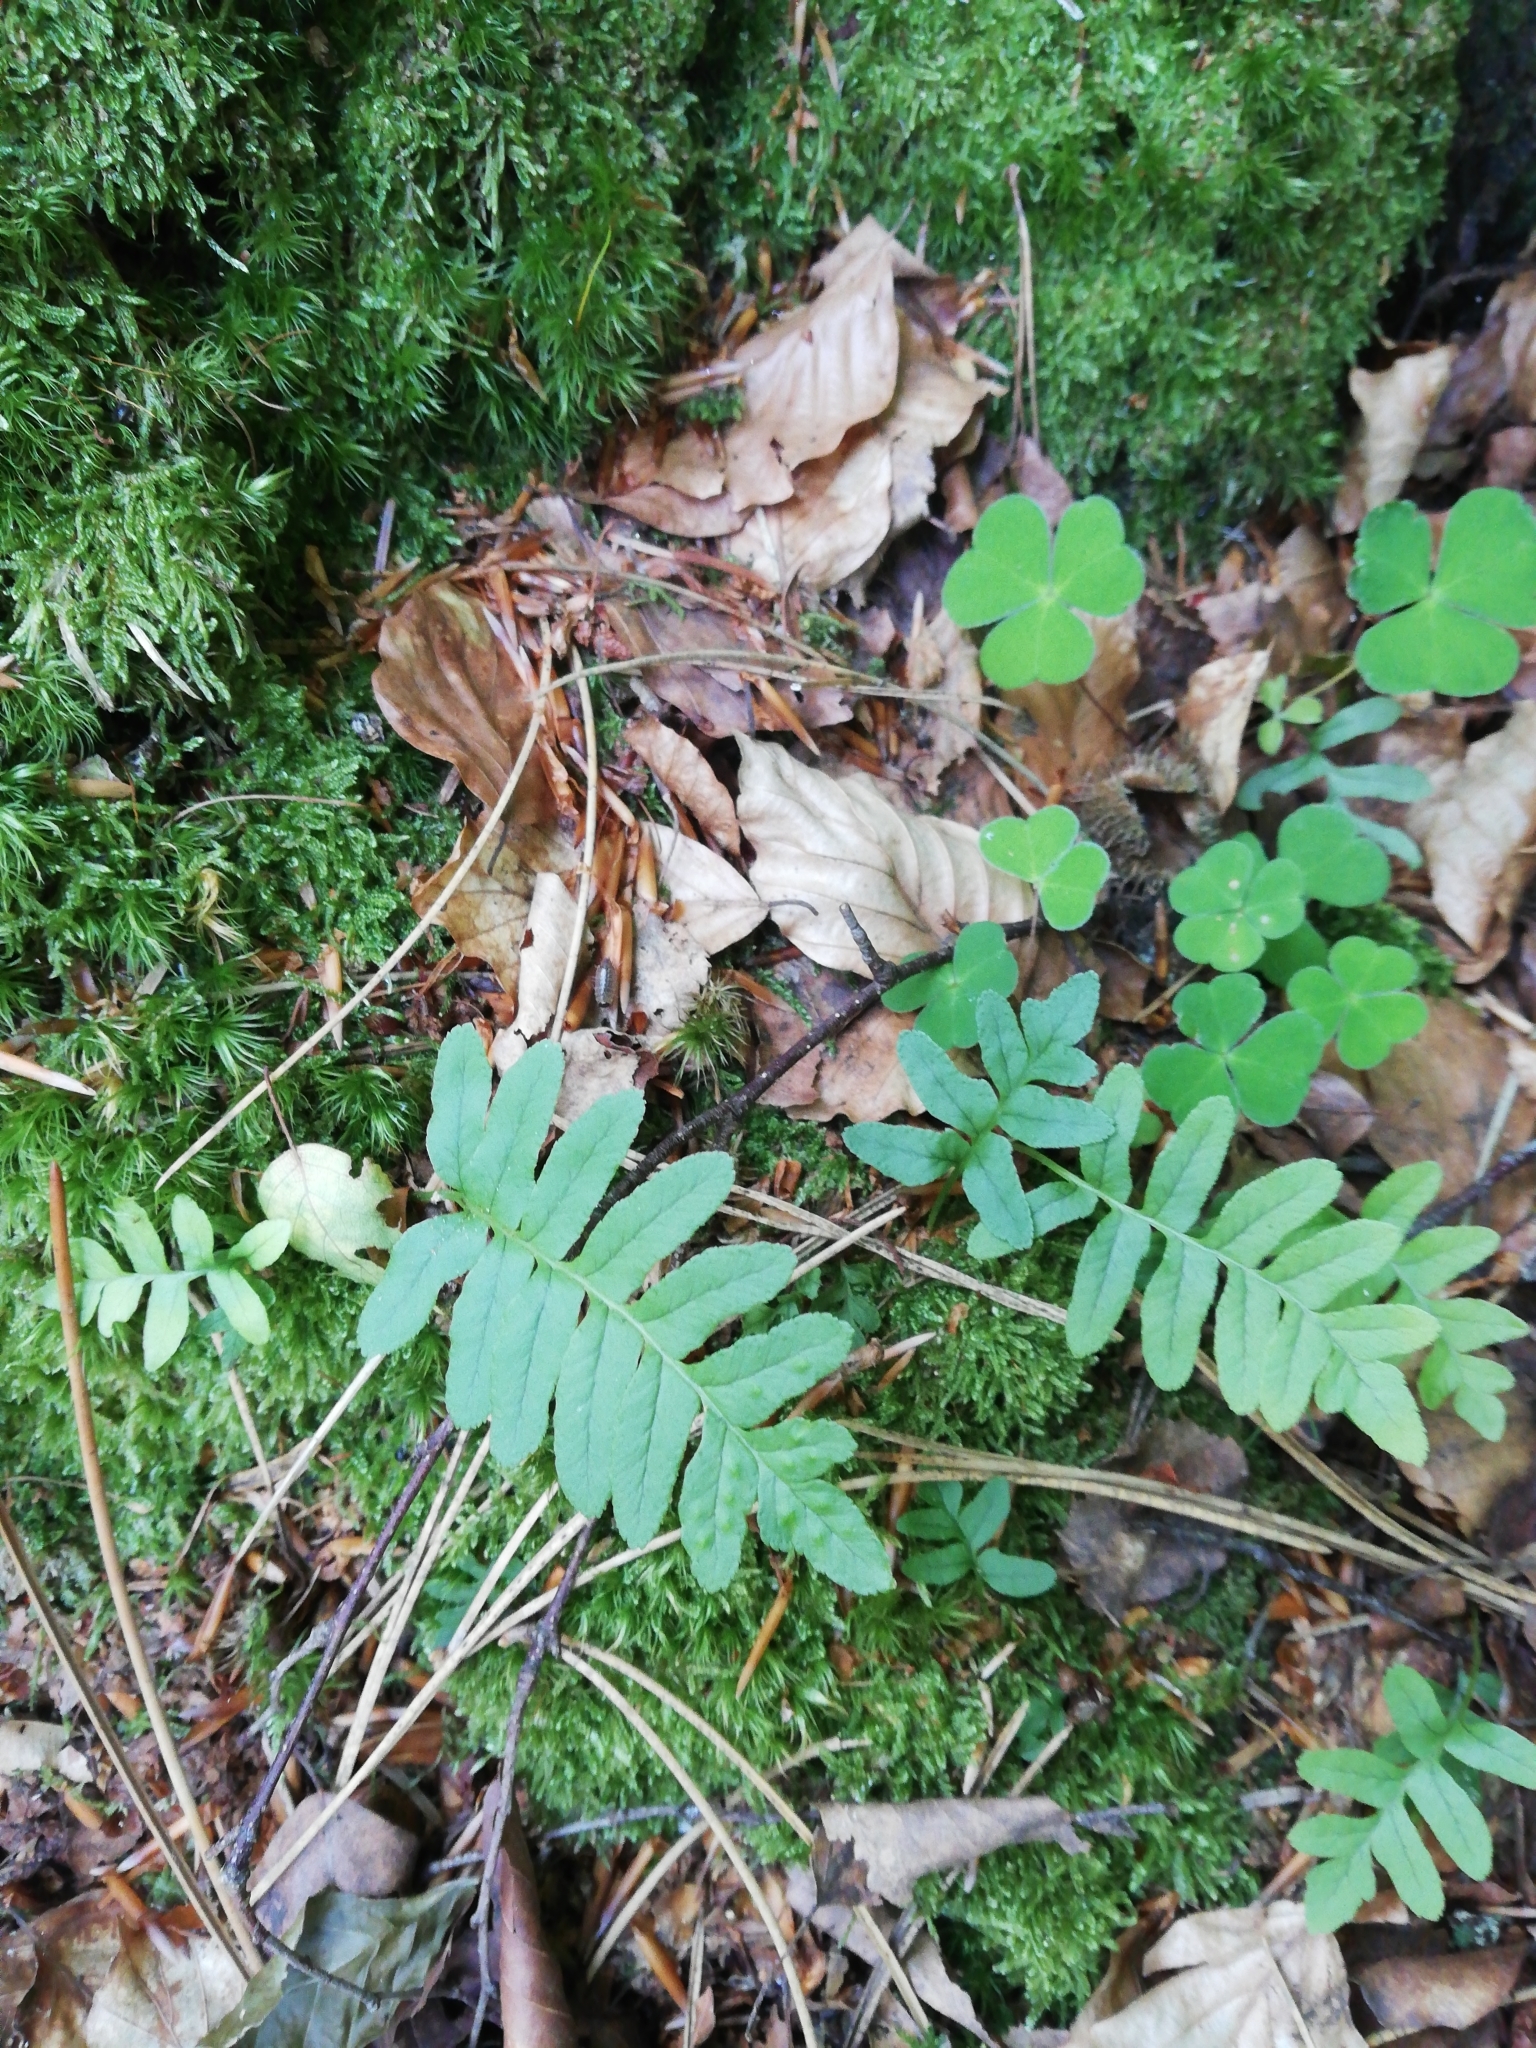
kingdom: Plantae
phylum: Tracheophyta
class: Polypodiopsida
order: Polypodiales
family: Polypodiaceae
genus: Polypodium
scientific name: Polypodium vulgare
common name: Common polypody
